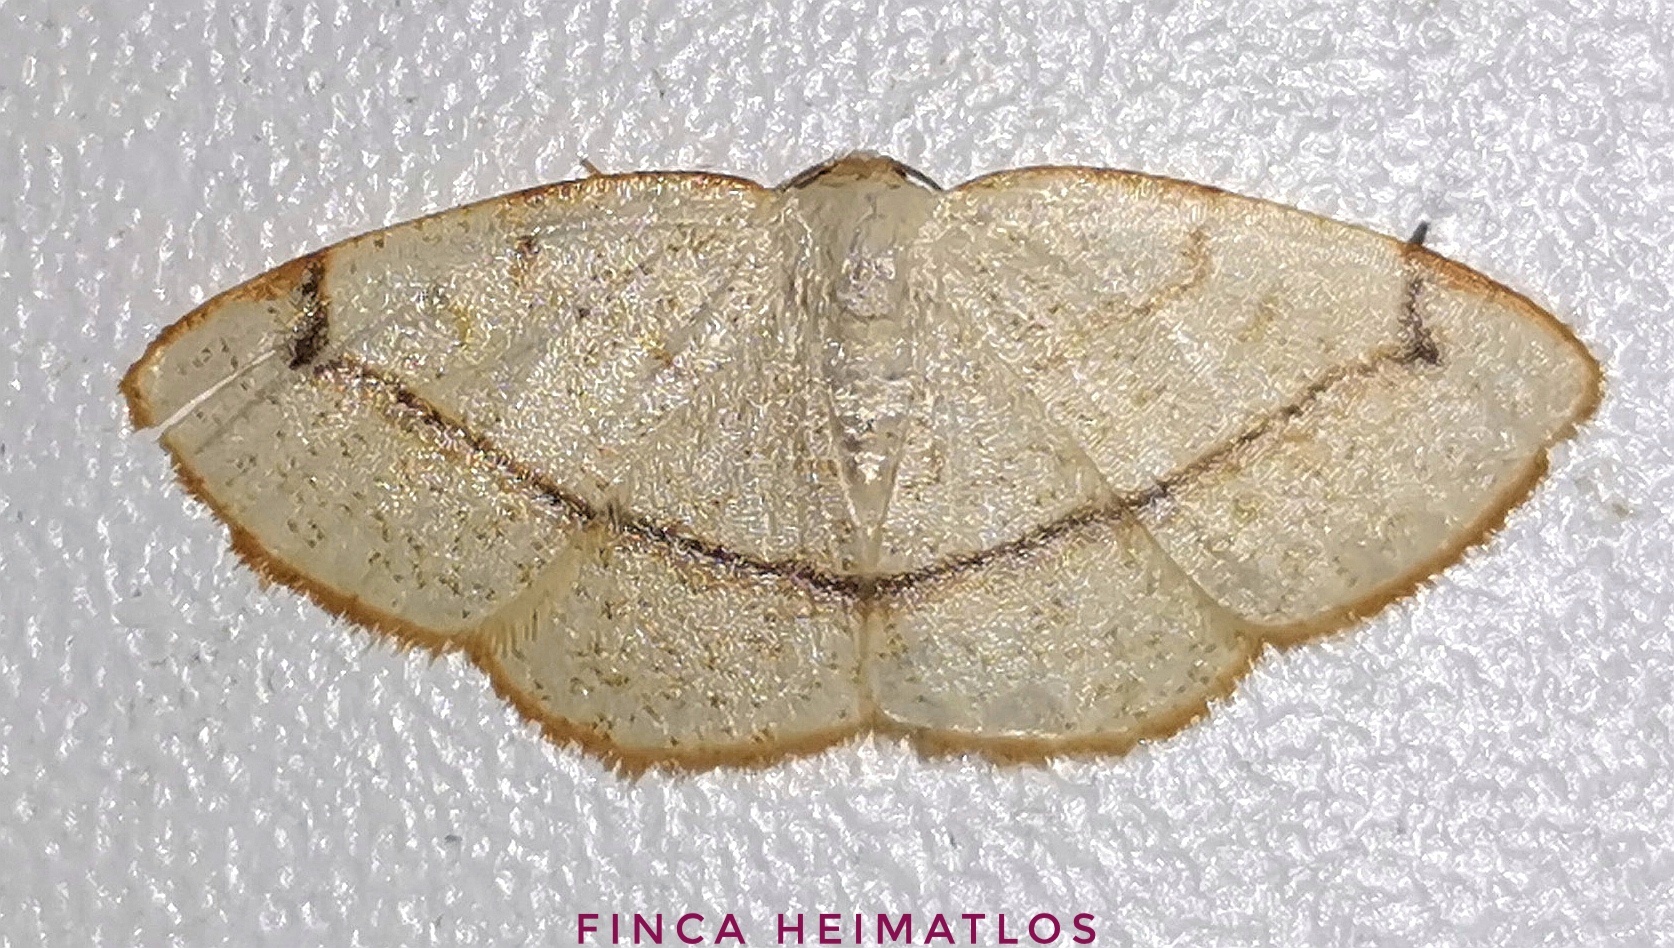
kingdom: Animalia
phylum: Arthropoda
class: Insecta
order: Lepidoptera
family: Geometridae
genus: Microxydia
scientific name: Microxydia orsitaria
